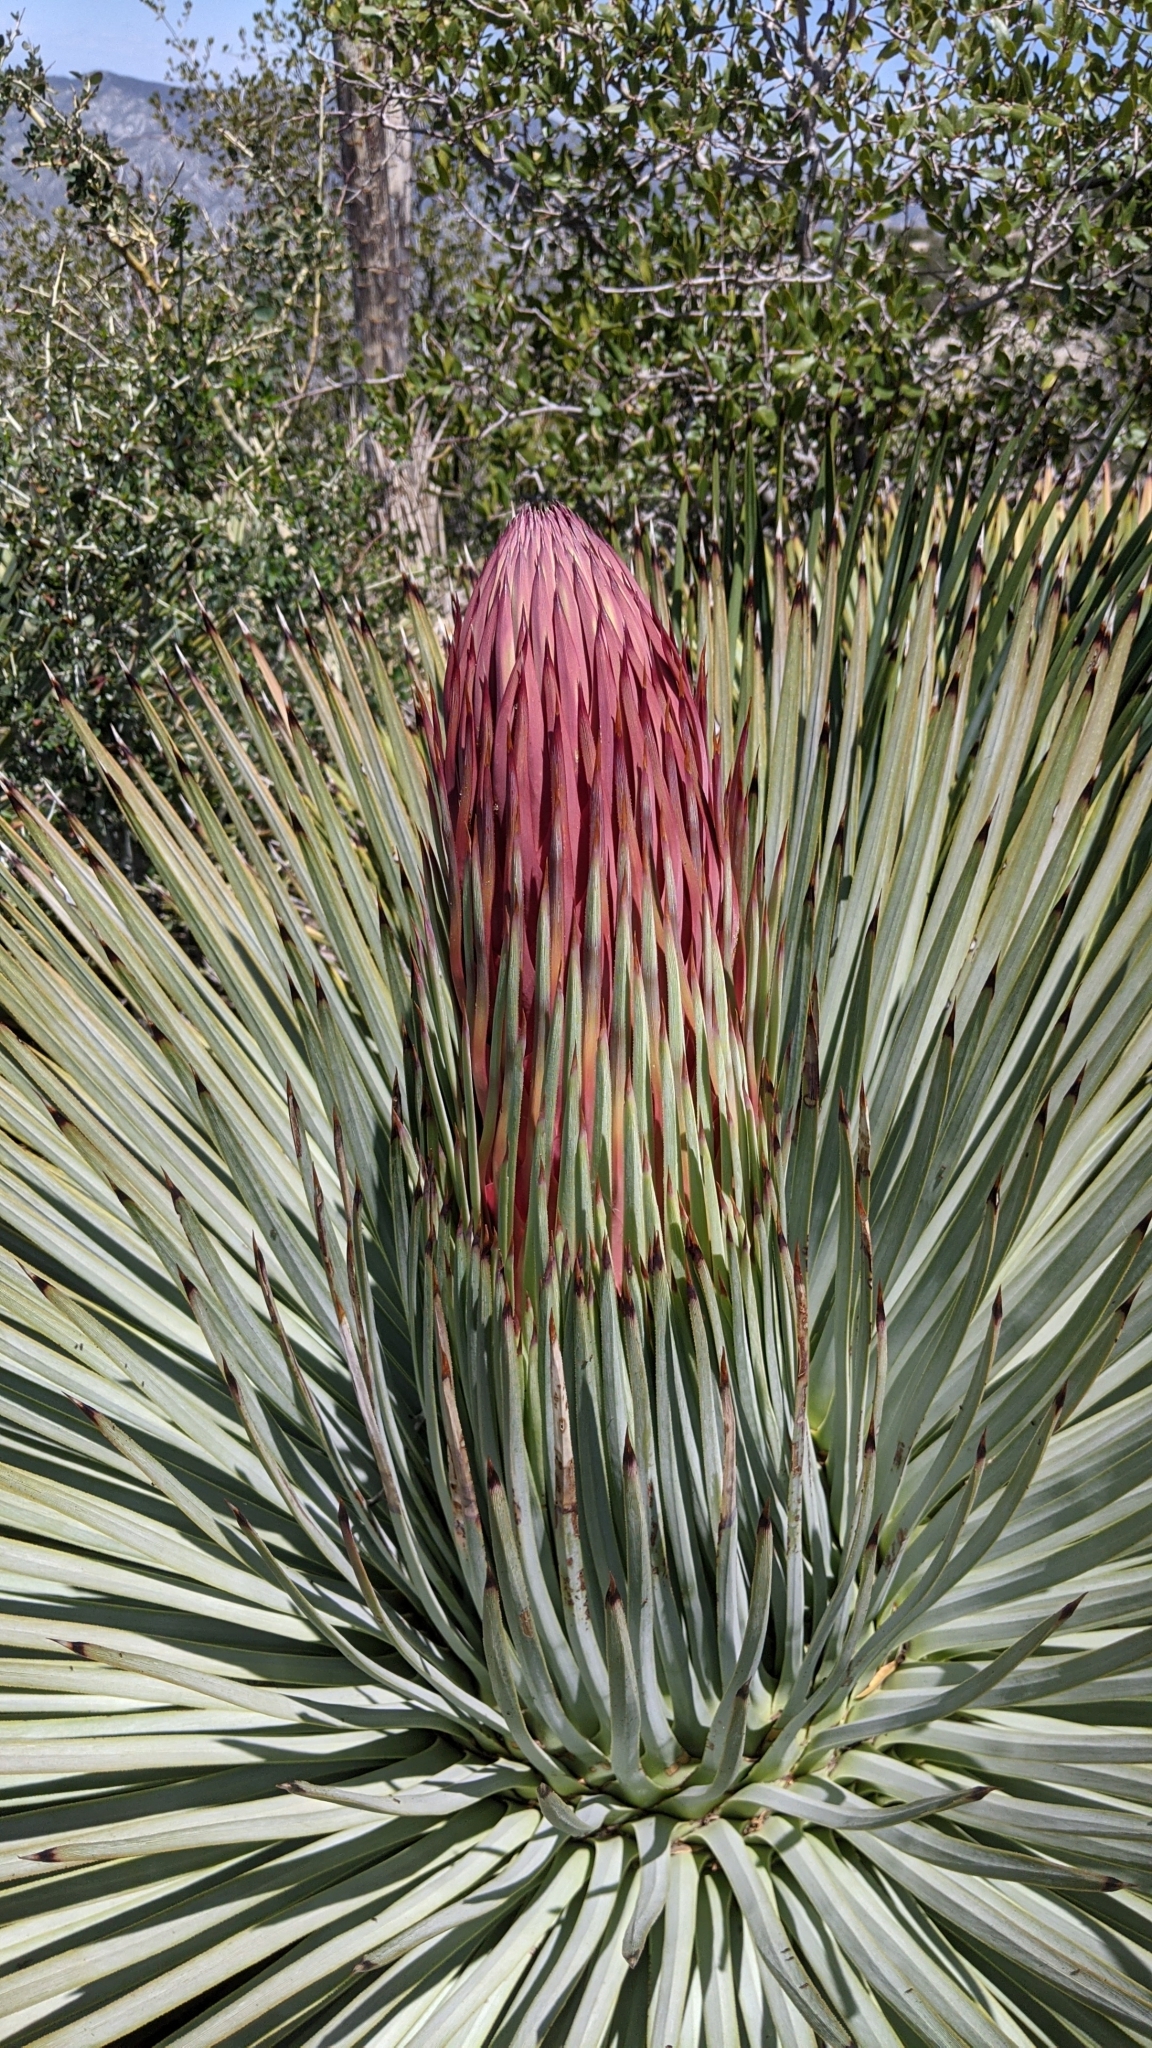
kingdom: Plantae
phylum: Tracheophyta
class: Liliopsida
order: Asparagales
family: Asparagaceae
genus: Hesperoyucca
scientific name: Hesperoyucca whipplei
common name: Our lord's-candle
